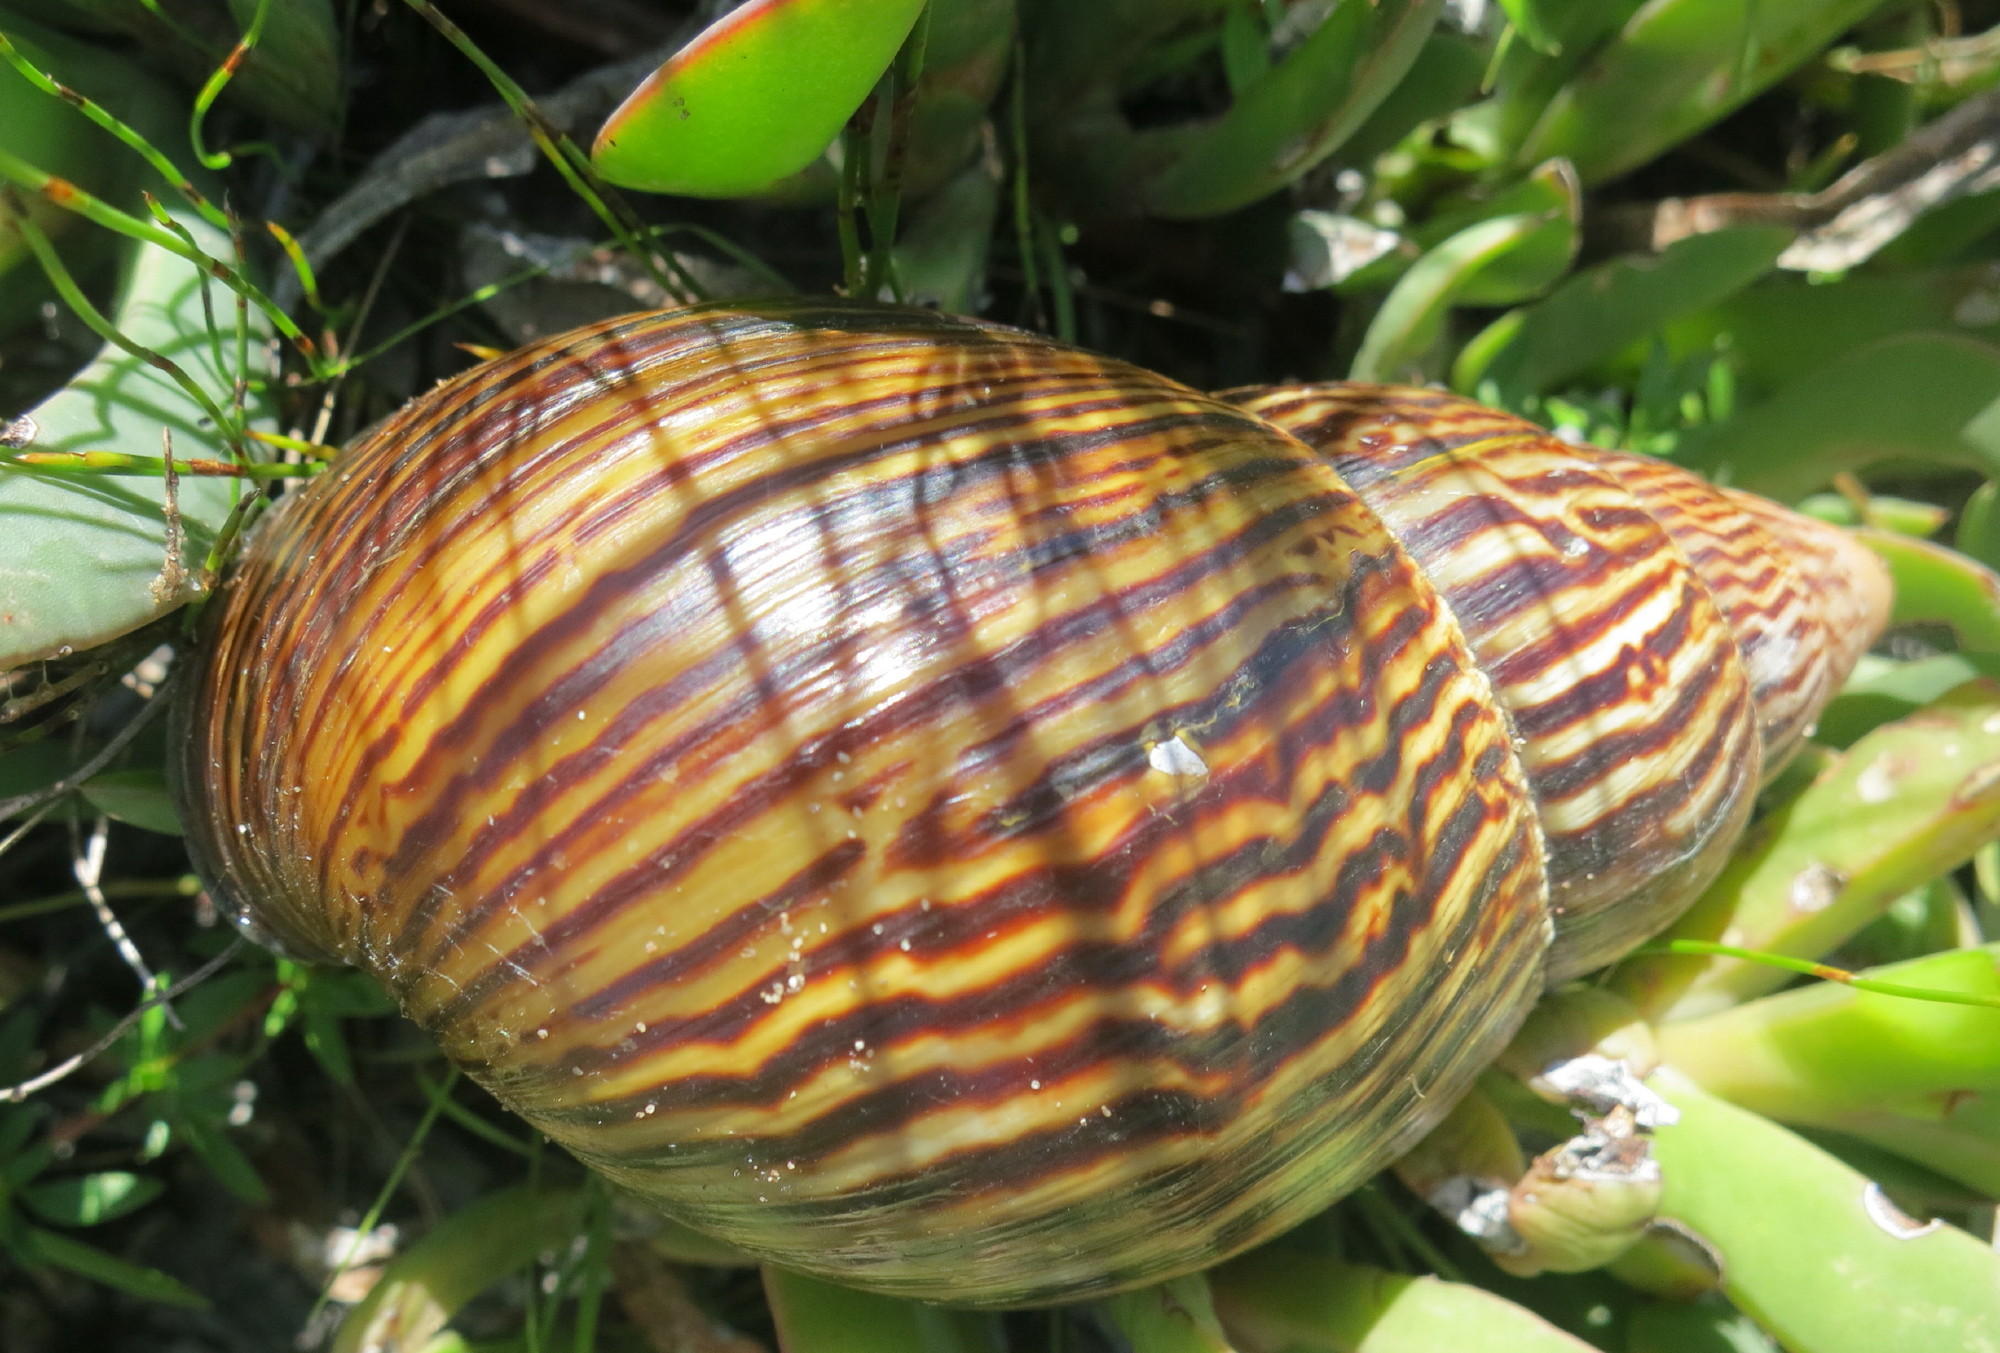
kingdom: Animalia
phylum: Mollusca
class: Gastropoda
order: Stylommatophora
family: Achatinidae
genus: Cochlitoma
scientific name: Cochlitoma zebra
